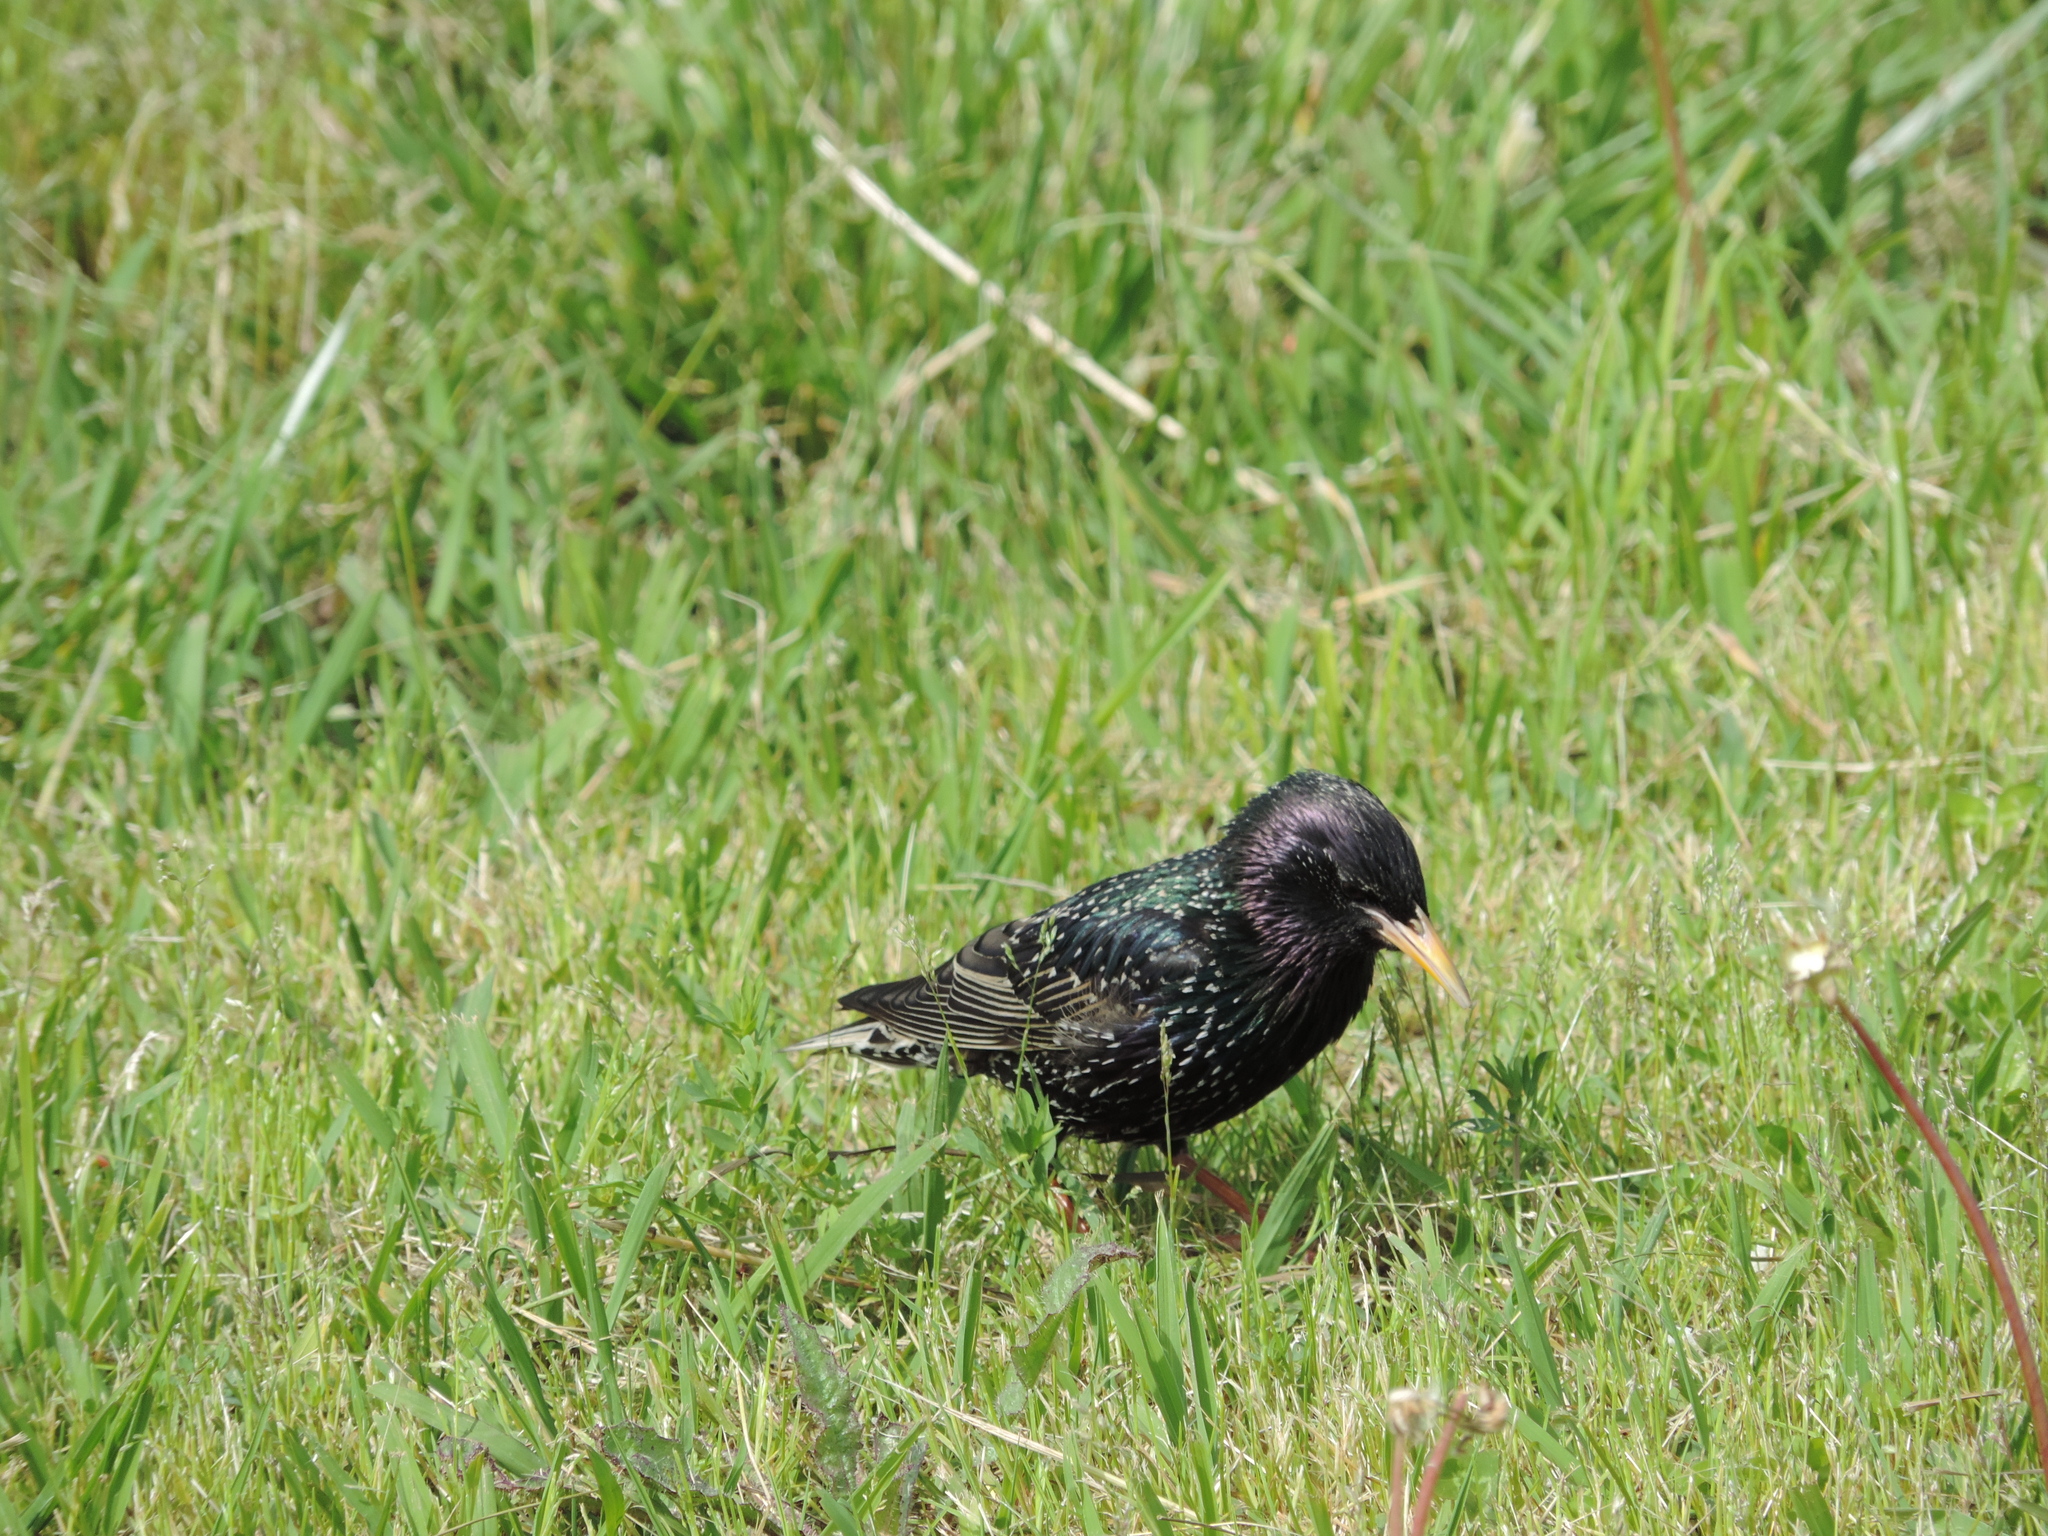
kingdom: Animalia
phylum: Chordata
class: Aves
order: Passeriformes
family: Sturnidae
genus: Sturnus
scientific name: Sturnus vulgaris
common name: Common starling
